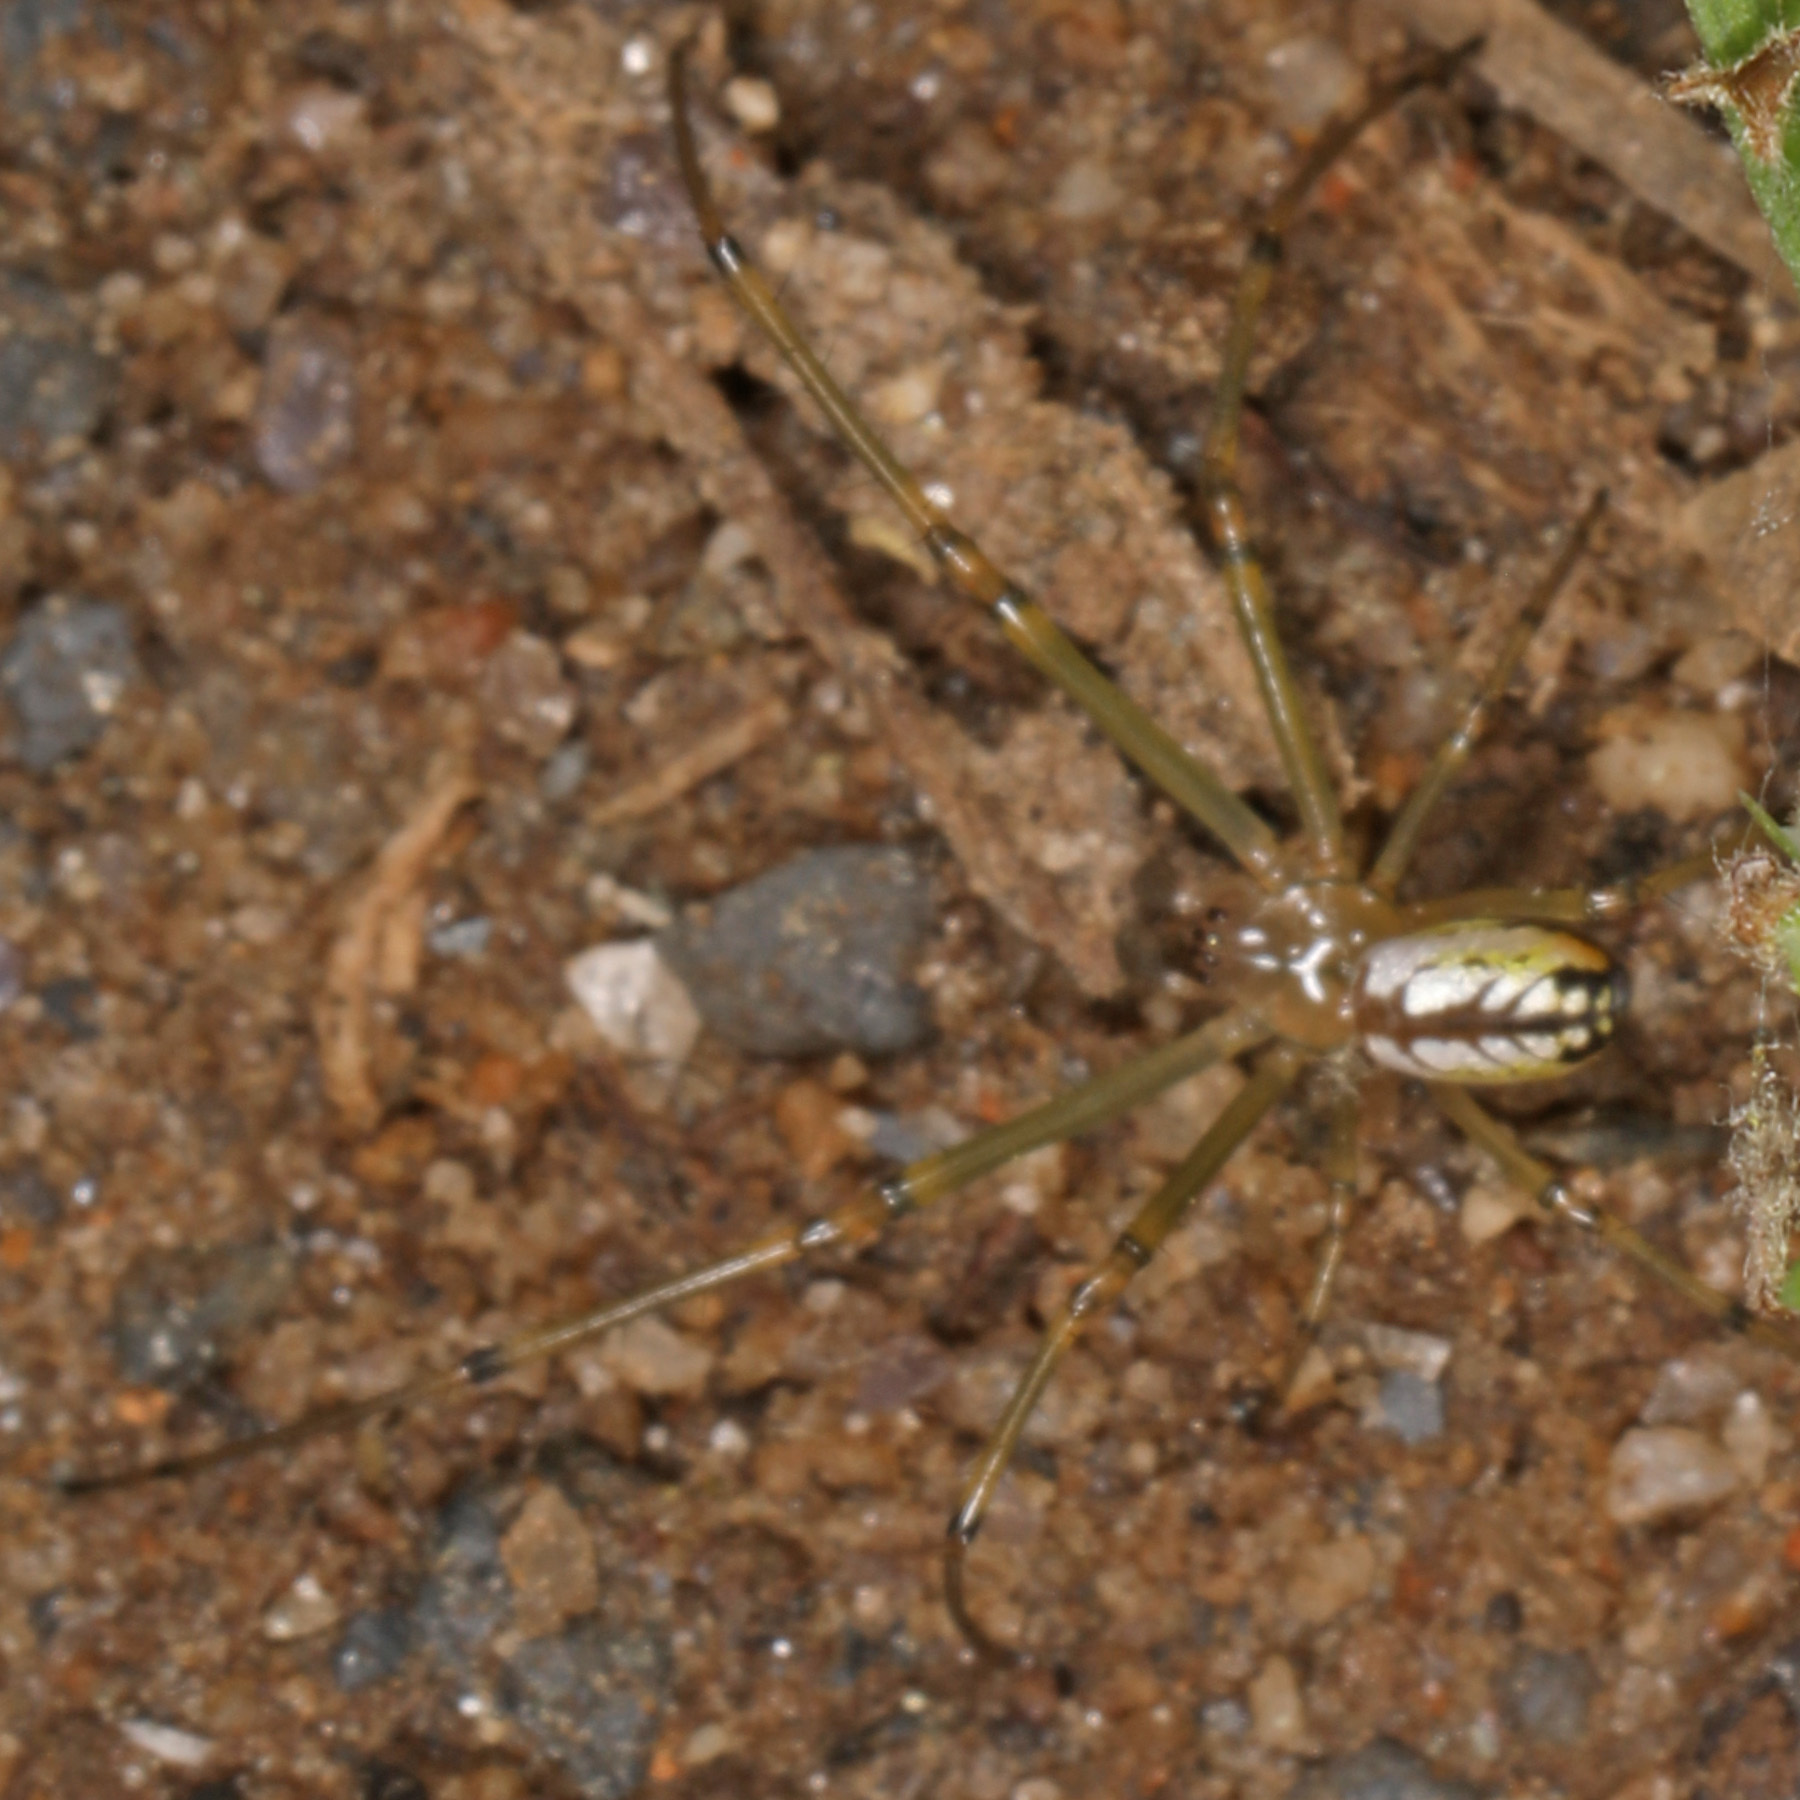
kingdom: Animalia
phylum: Arthropoda
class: Arachnida
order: Araneae
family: Tetragnathidae
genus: Leucauge
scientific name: Leucauge venusta
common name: Longjawed orb weavers
